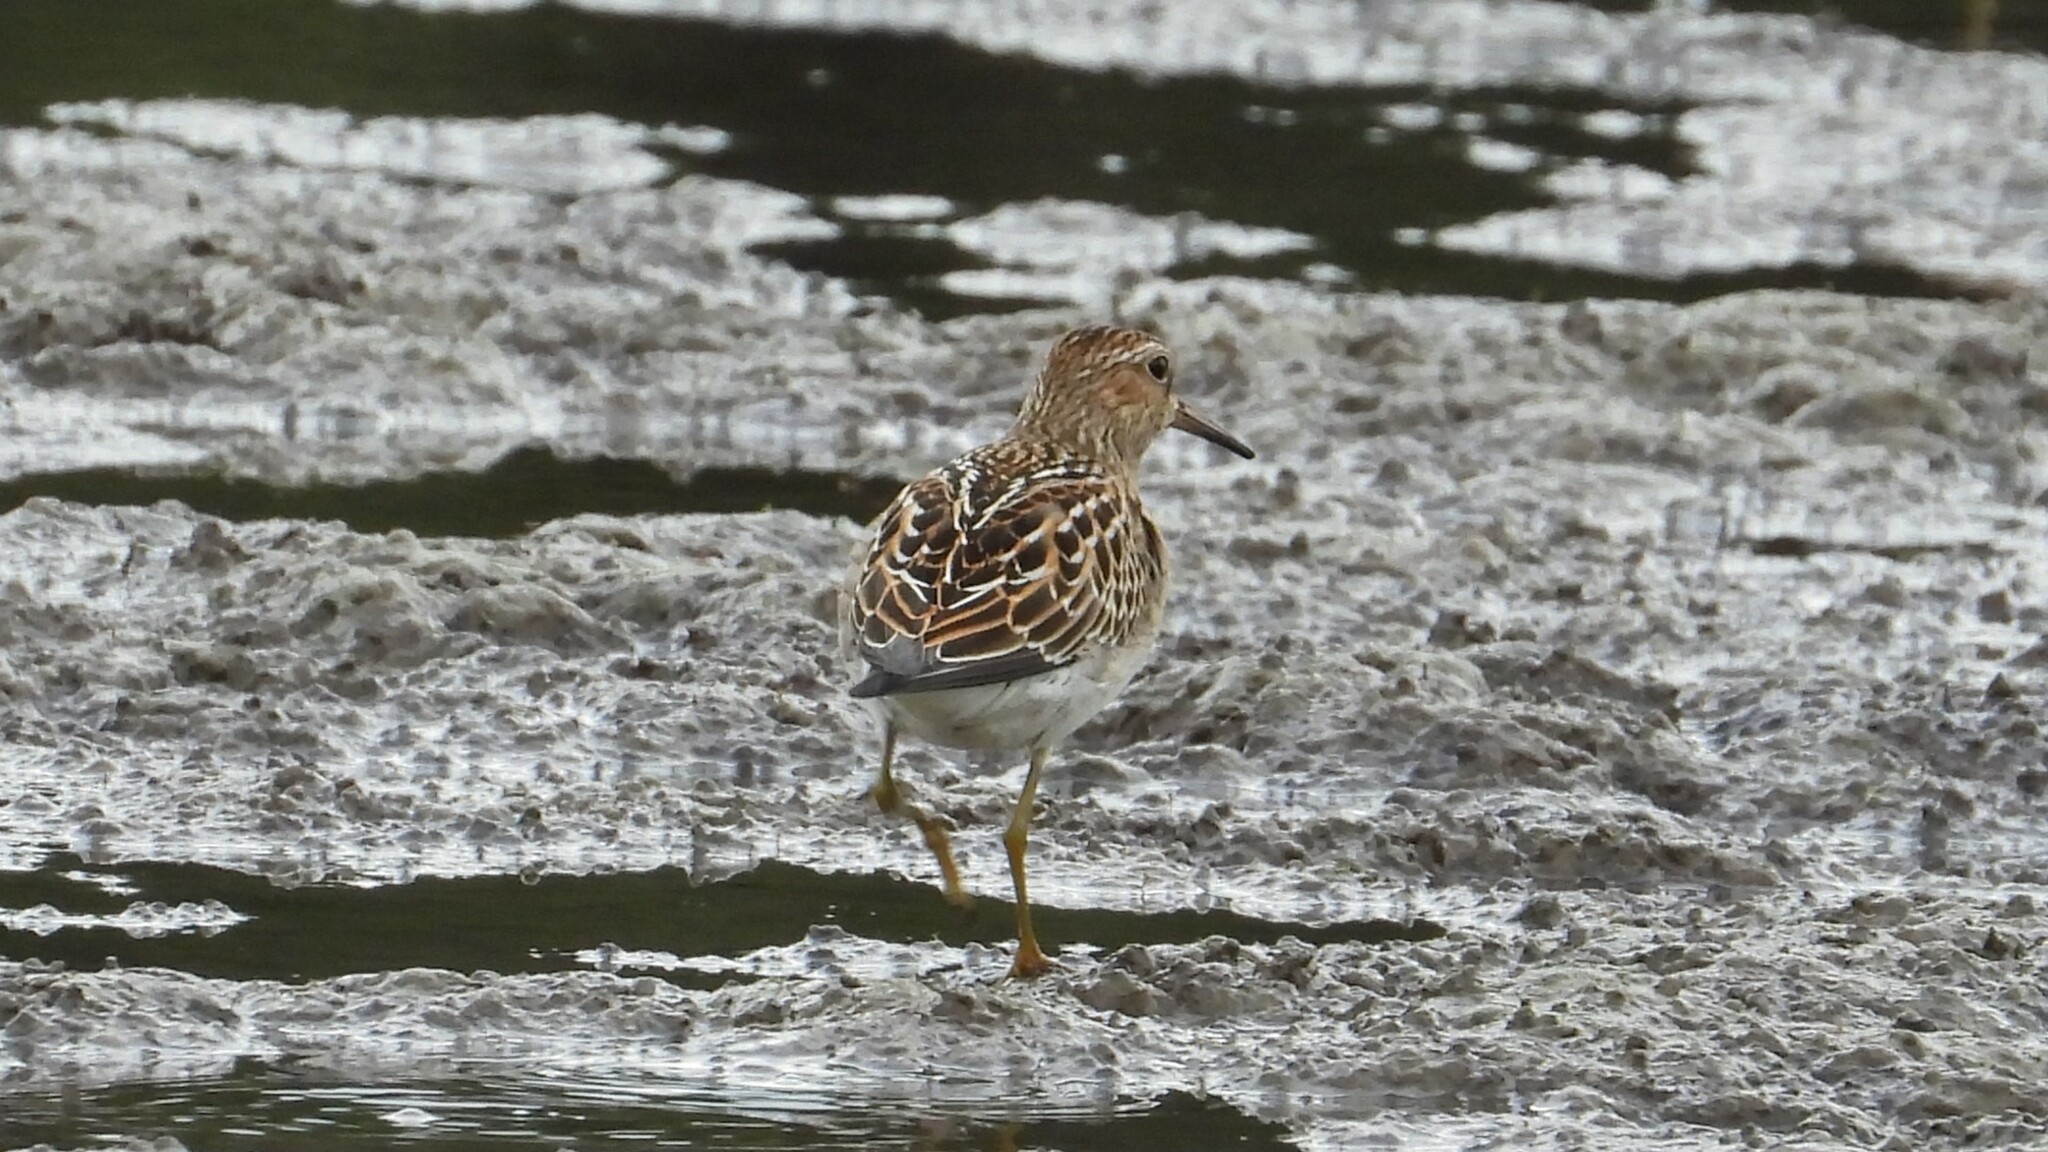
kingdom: Animalia
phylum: Chordata
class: Aves
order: Charadriiformes
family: Scolopacidae
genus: Calidris
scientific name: Calidris melanotos
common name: Pectoral sandpiper
